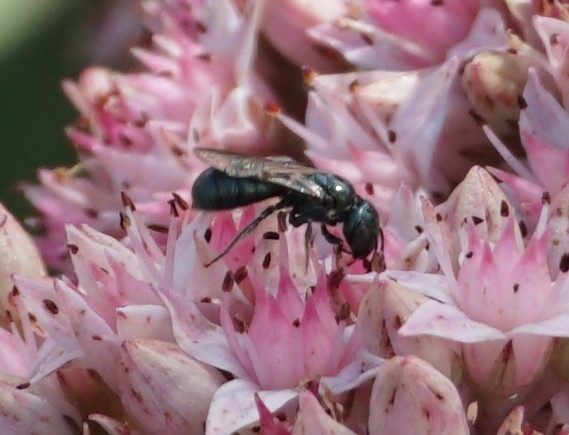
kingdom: Animalia
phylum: Arthropoda
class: Insecta
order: Hymenoptera
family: Apidae
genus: Zadontomerus
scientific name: Zadontomerus
